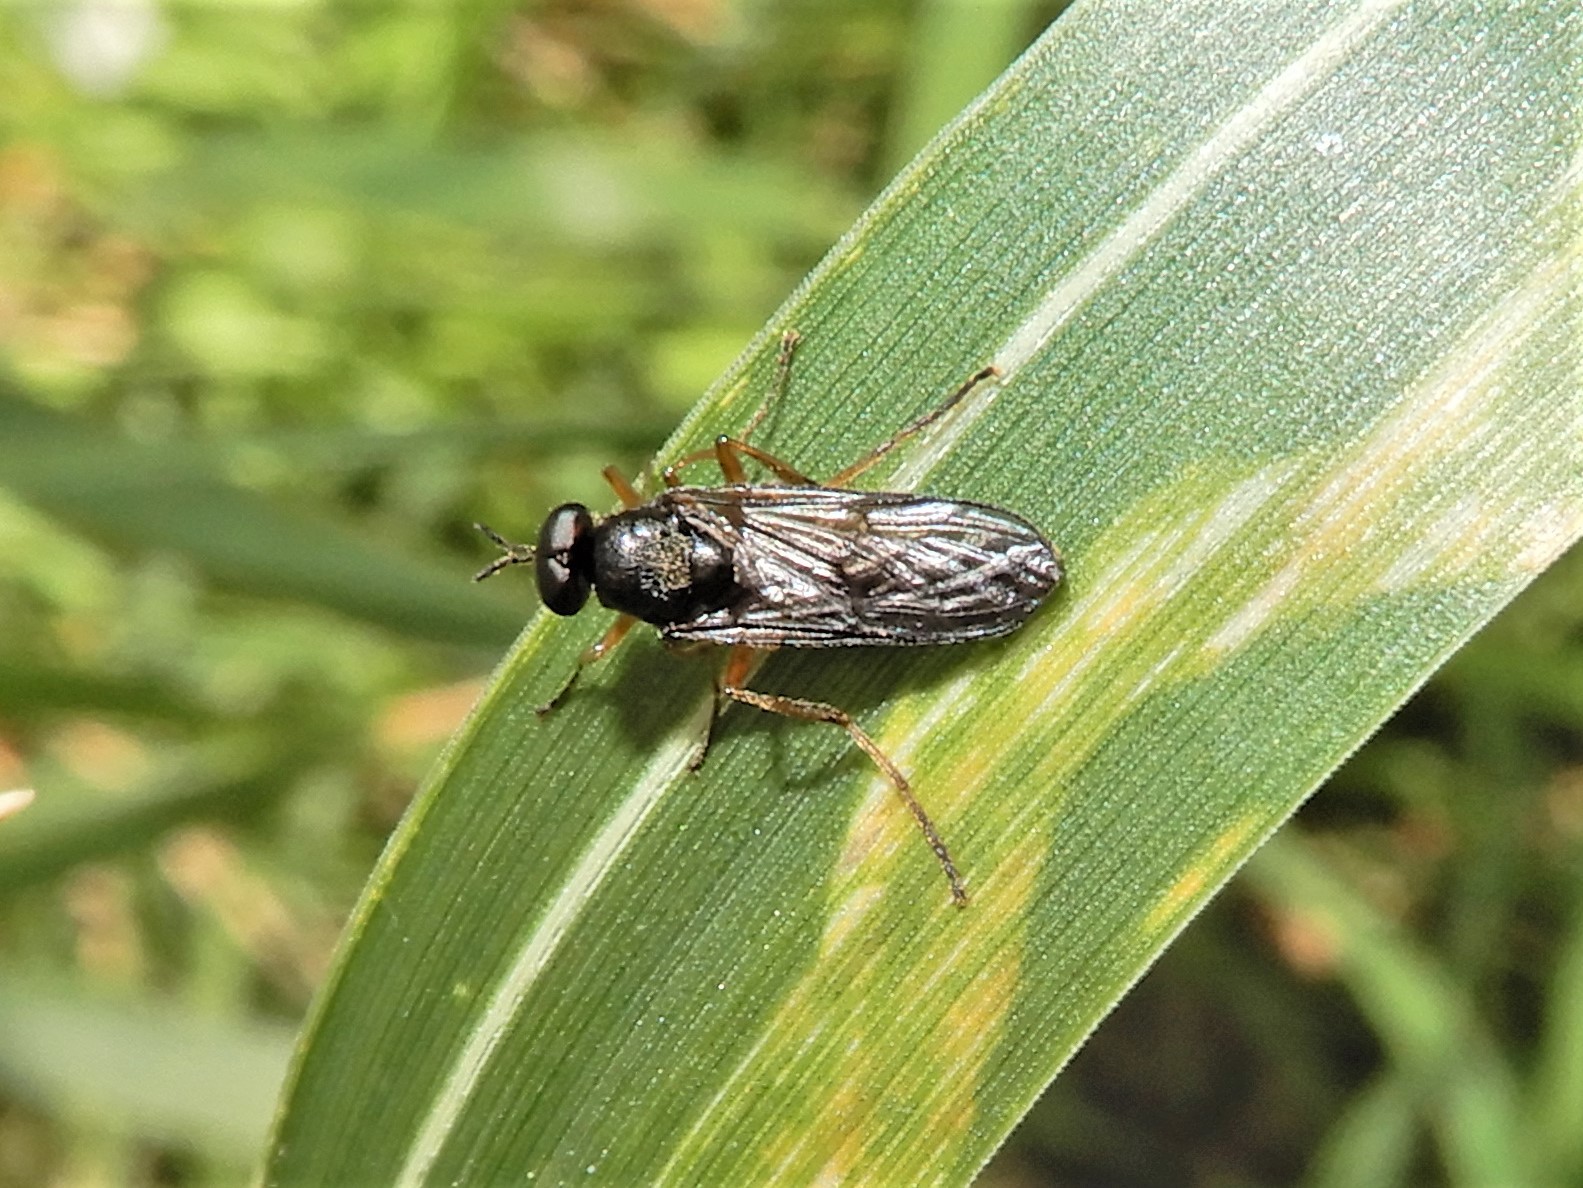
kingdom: Animalia
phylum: Arthropoda
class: Insecta
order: Diptera
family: Stratiomyidae
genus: Inopus
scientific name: Inopus rubriceps
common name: Soldier fly
